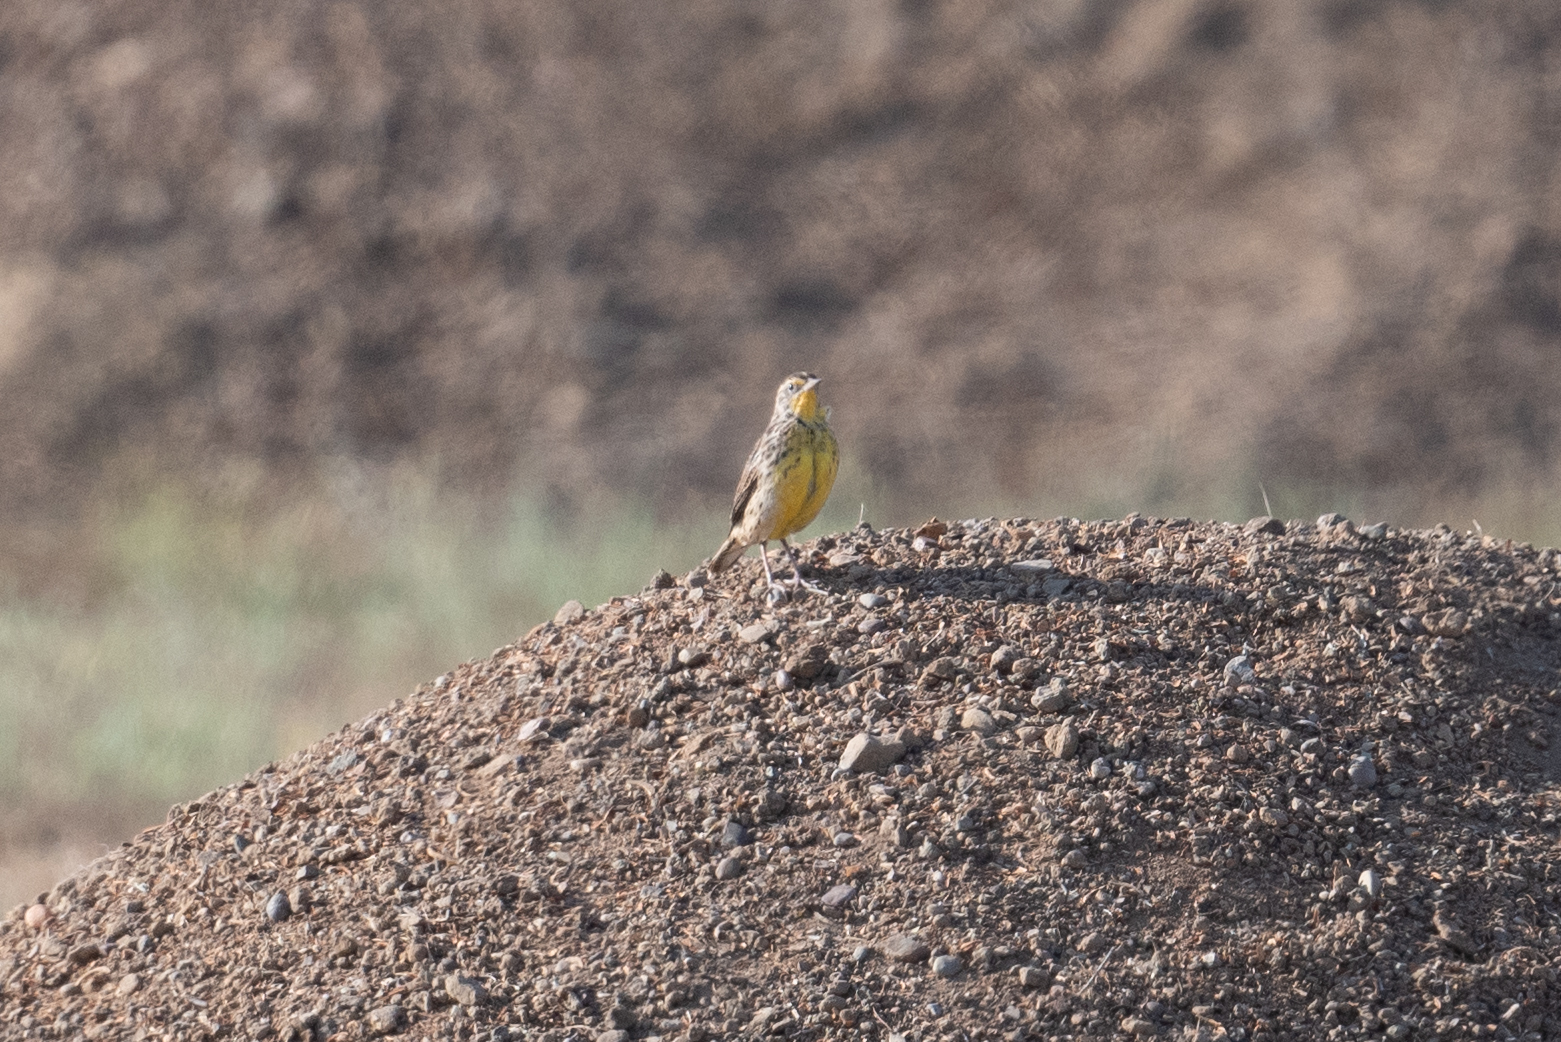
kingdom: Animalia
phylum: Chordata
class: Aves
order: Passeriformes
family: Icteridae
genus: Sturnella
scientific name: Sturnella neglecta
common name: Western meadowlark
